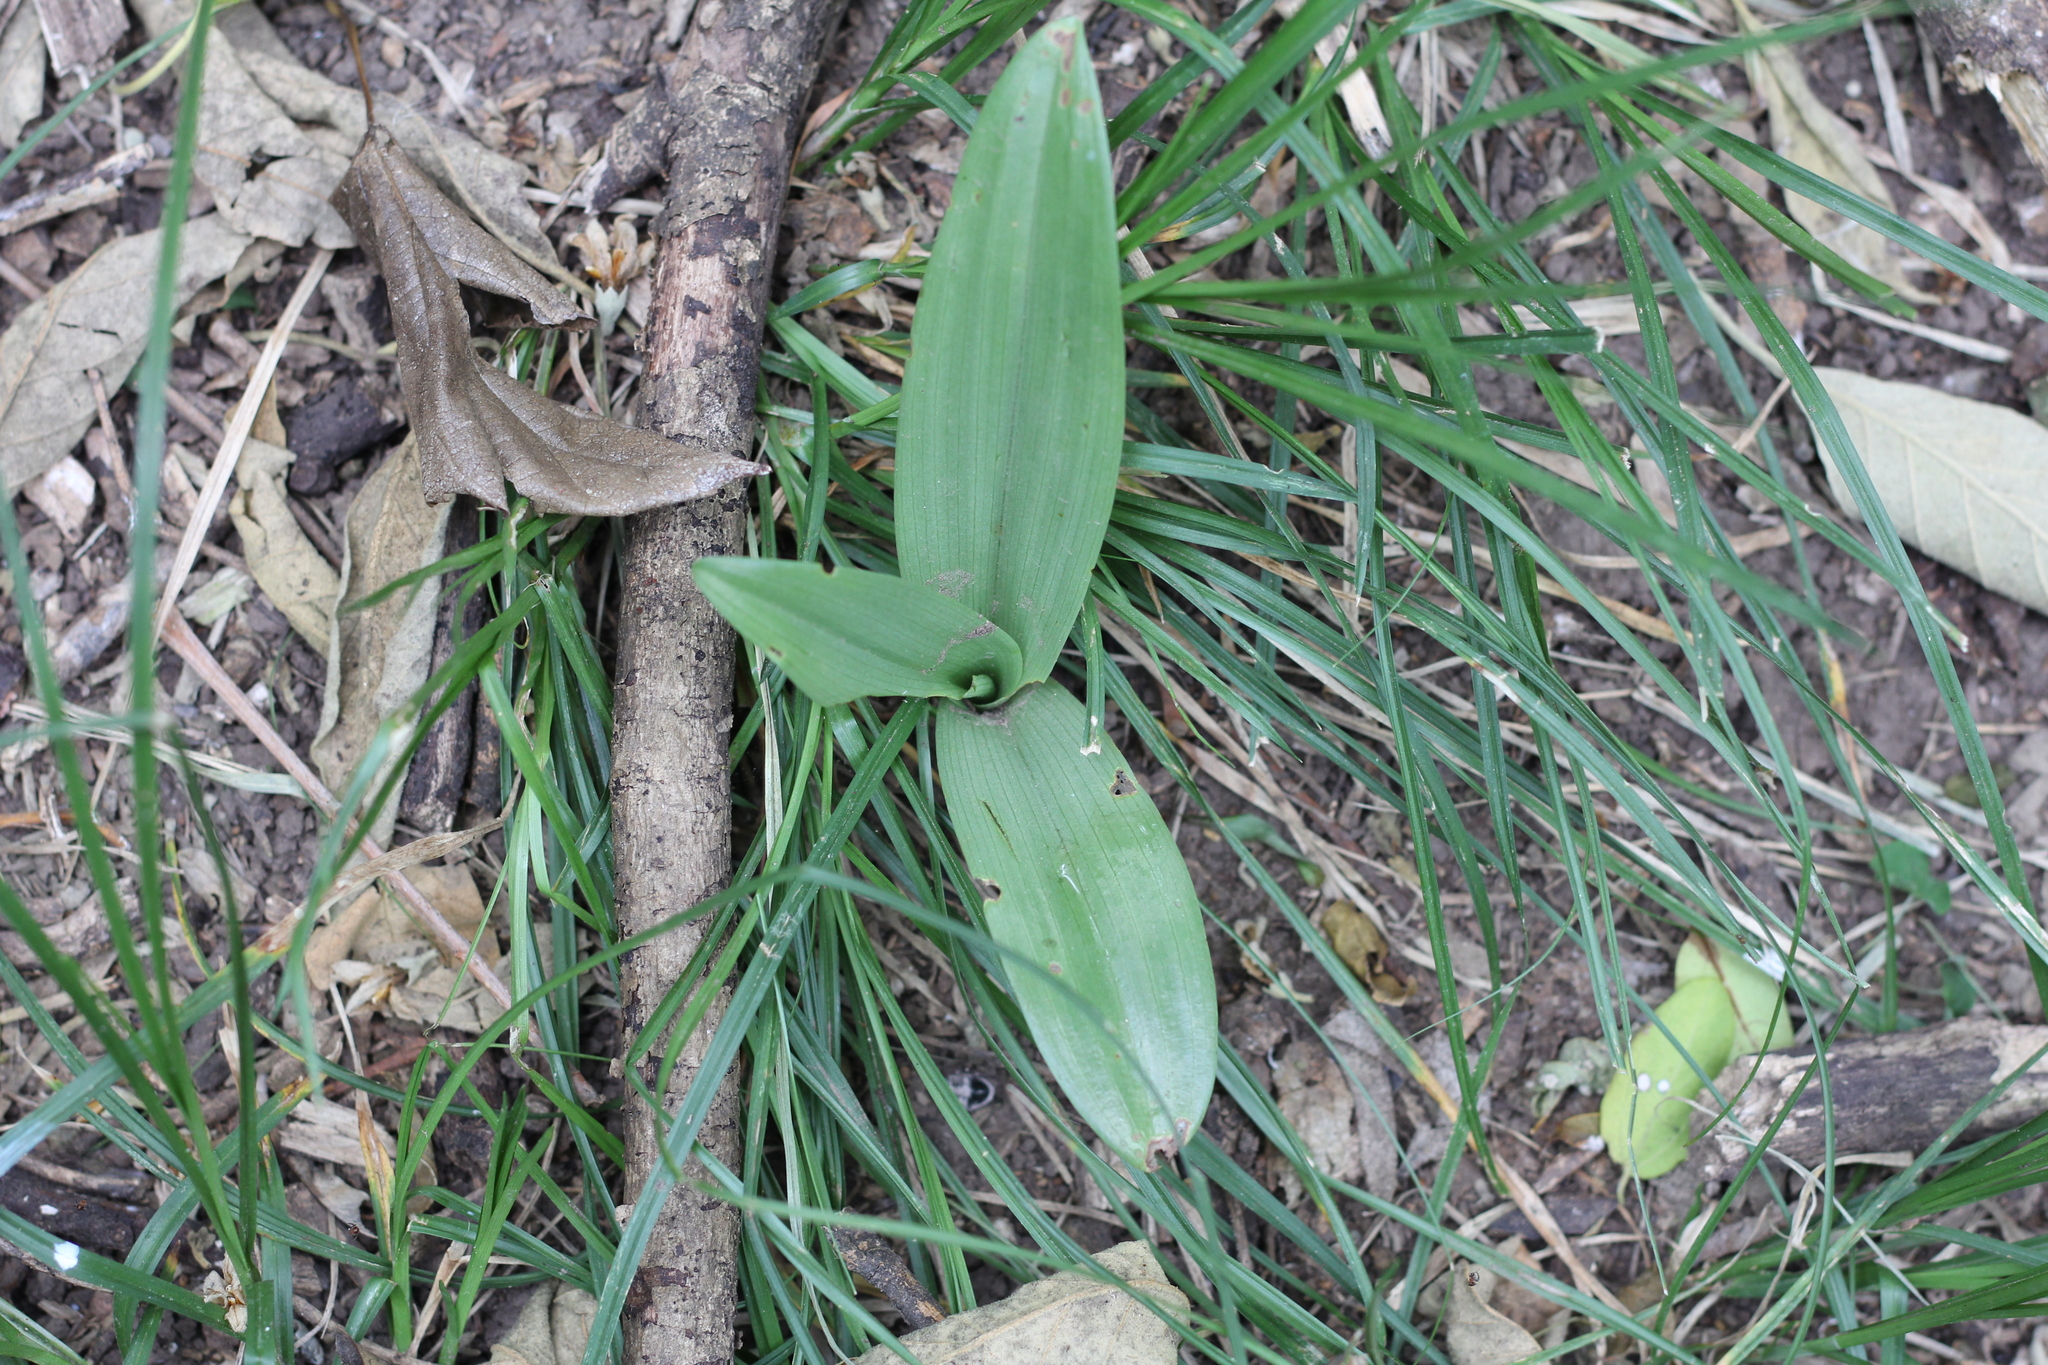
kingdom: Plantae
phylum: Tracheophyta
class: Liliopsida
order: Asparagales
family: Orchidaceae
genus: Chloraea
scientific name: Chloraea membranacea
